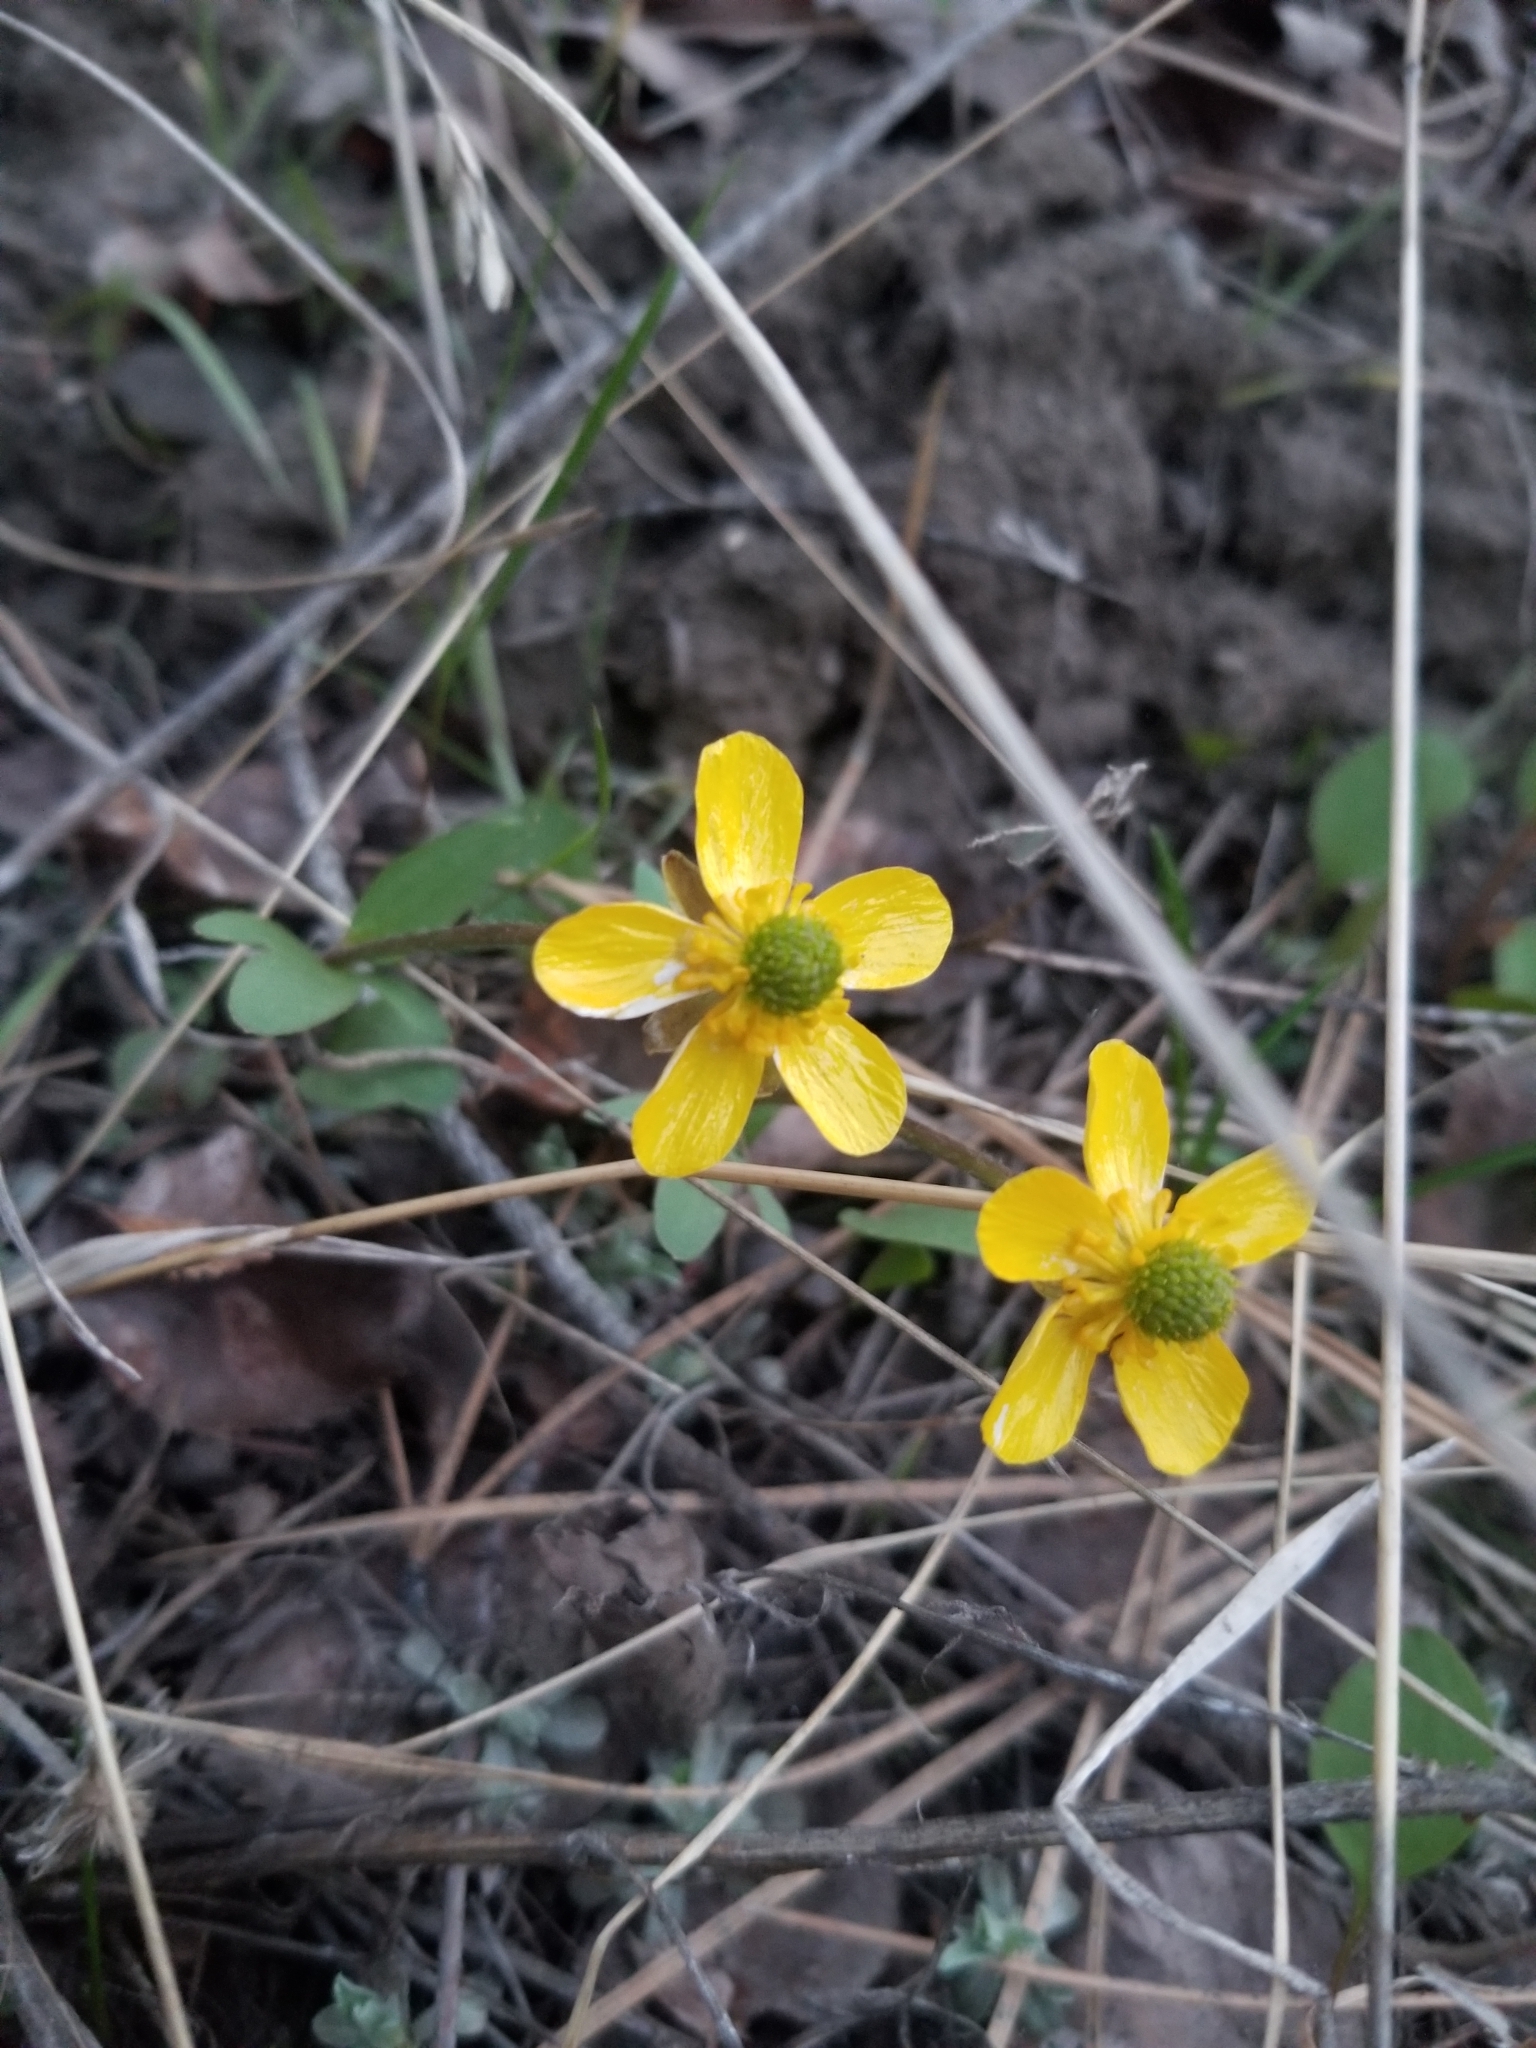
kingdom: Plantae
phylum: Tracheophyta
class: Magnoliopsida
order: Ranunculales
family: Ranunculaceae
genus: Ranunculus
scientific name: Ranunculus glaberrimus
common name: Sagebrush buttercup
